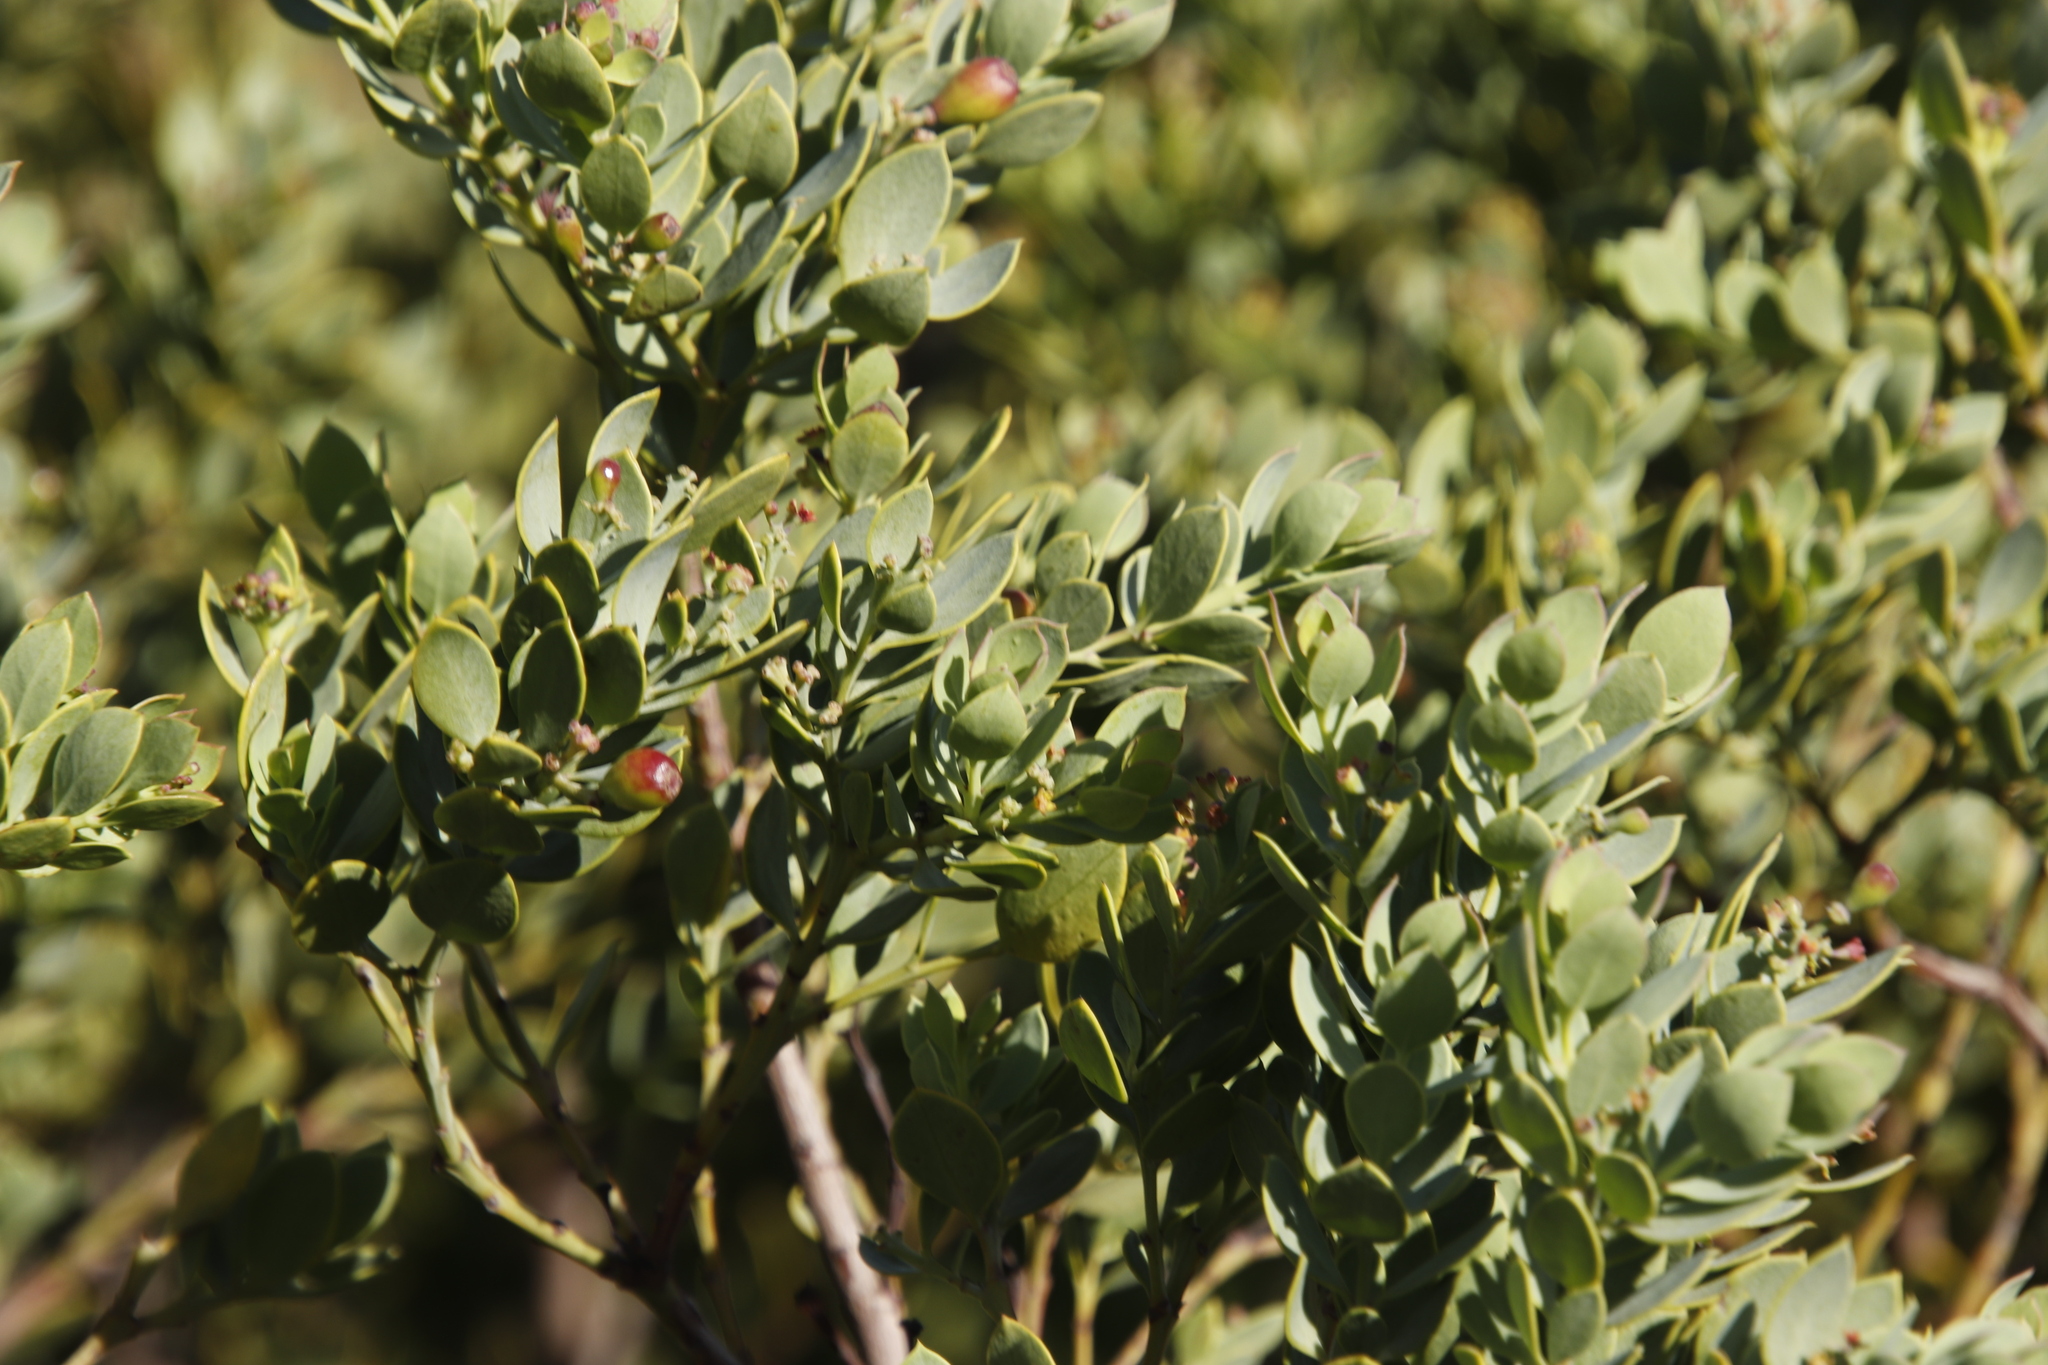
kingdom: Plantae
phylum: Tracheophyta
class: Magnoliopsida
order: Santalales
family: Santalaceae
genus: Osyris
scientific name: Osyris compressa
